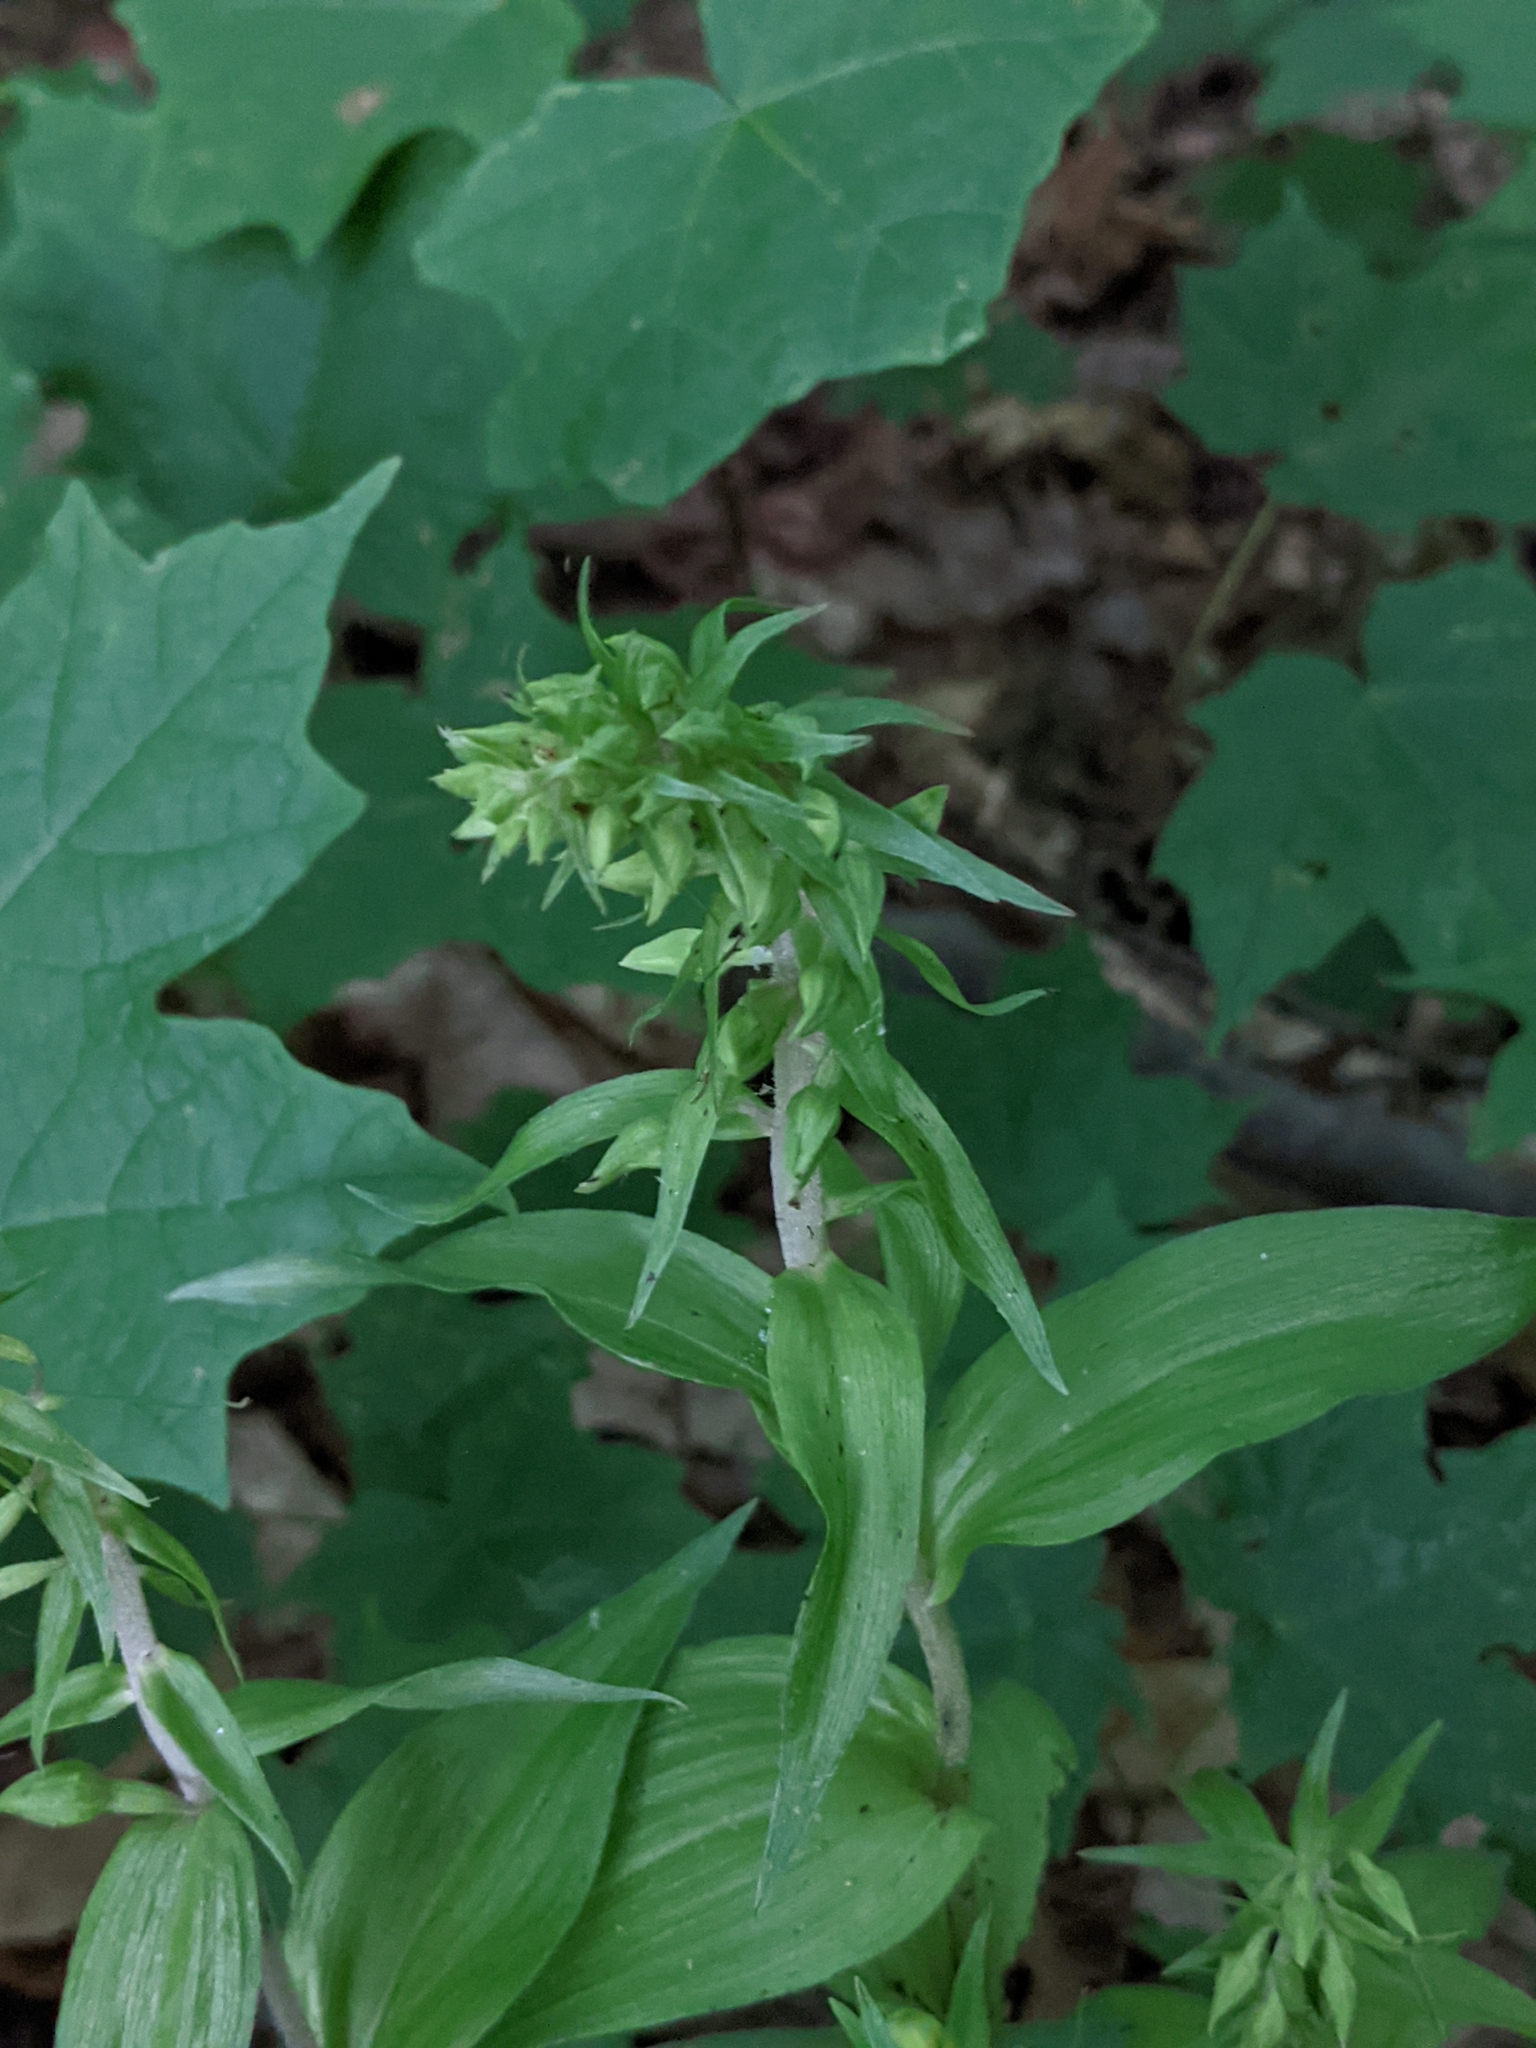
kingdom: Plantae
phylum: Tracheophyta
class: Liliopsida
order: Asparagales
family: Orchidaceae
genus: Epipactis
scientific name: Epipactis helleborine
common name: Broad-leaved helleborine
